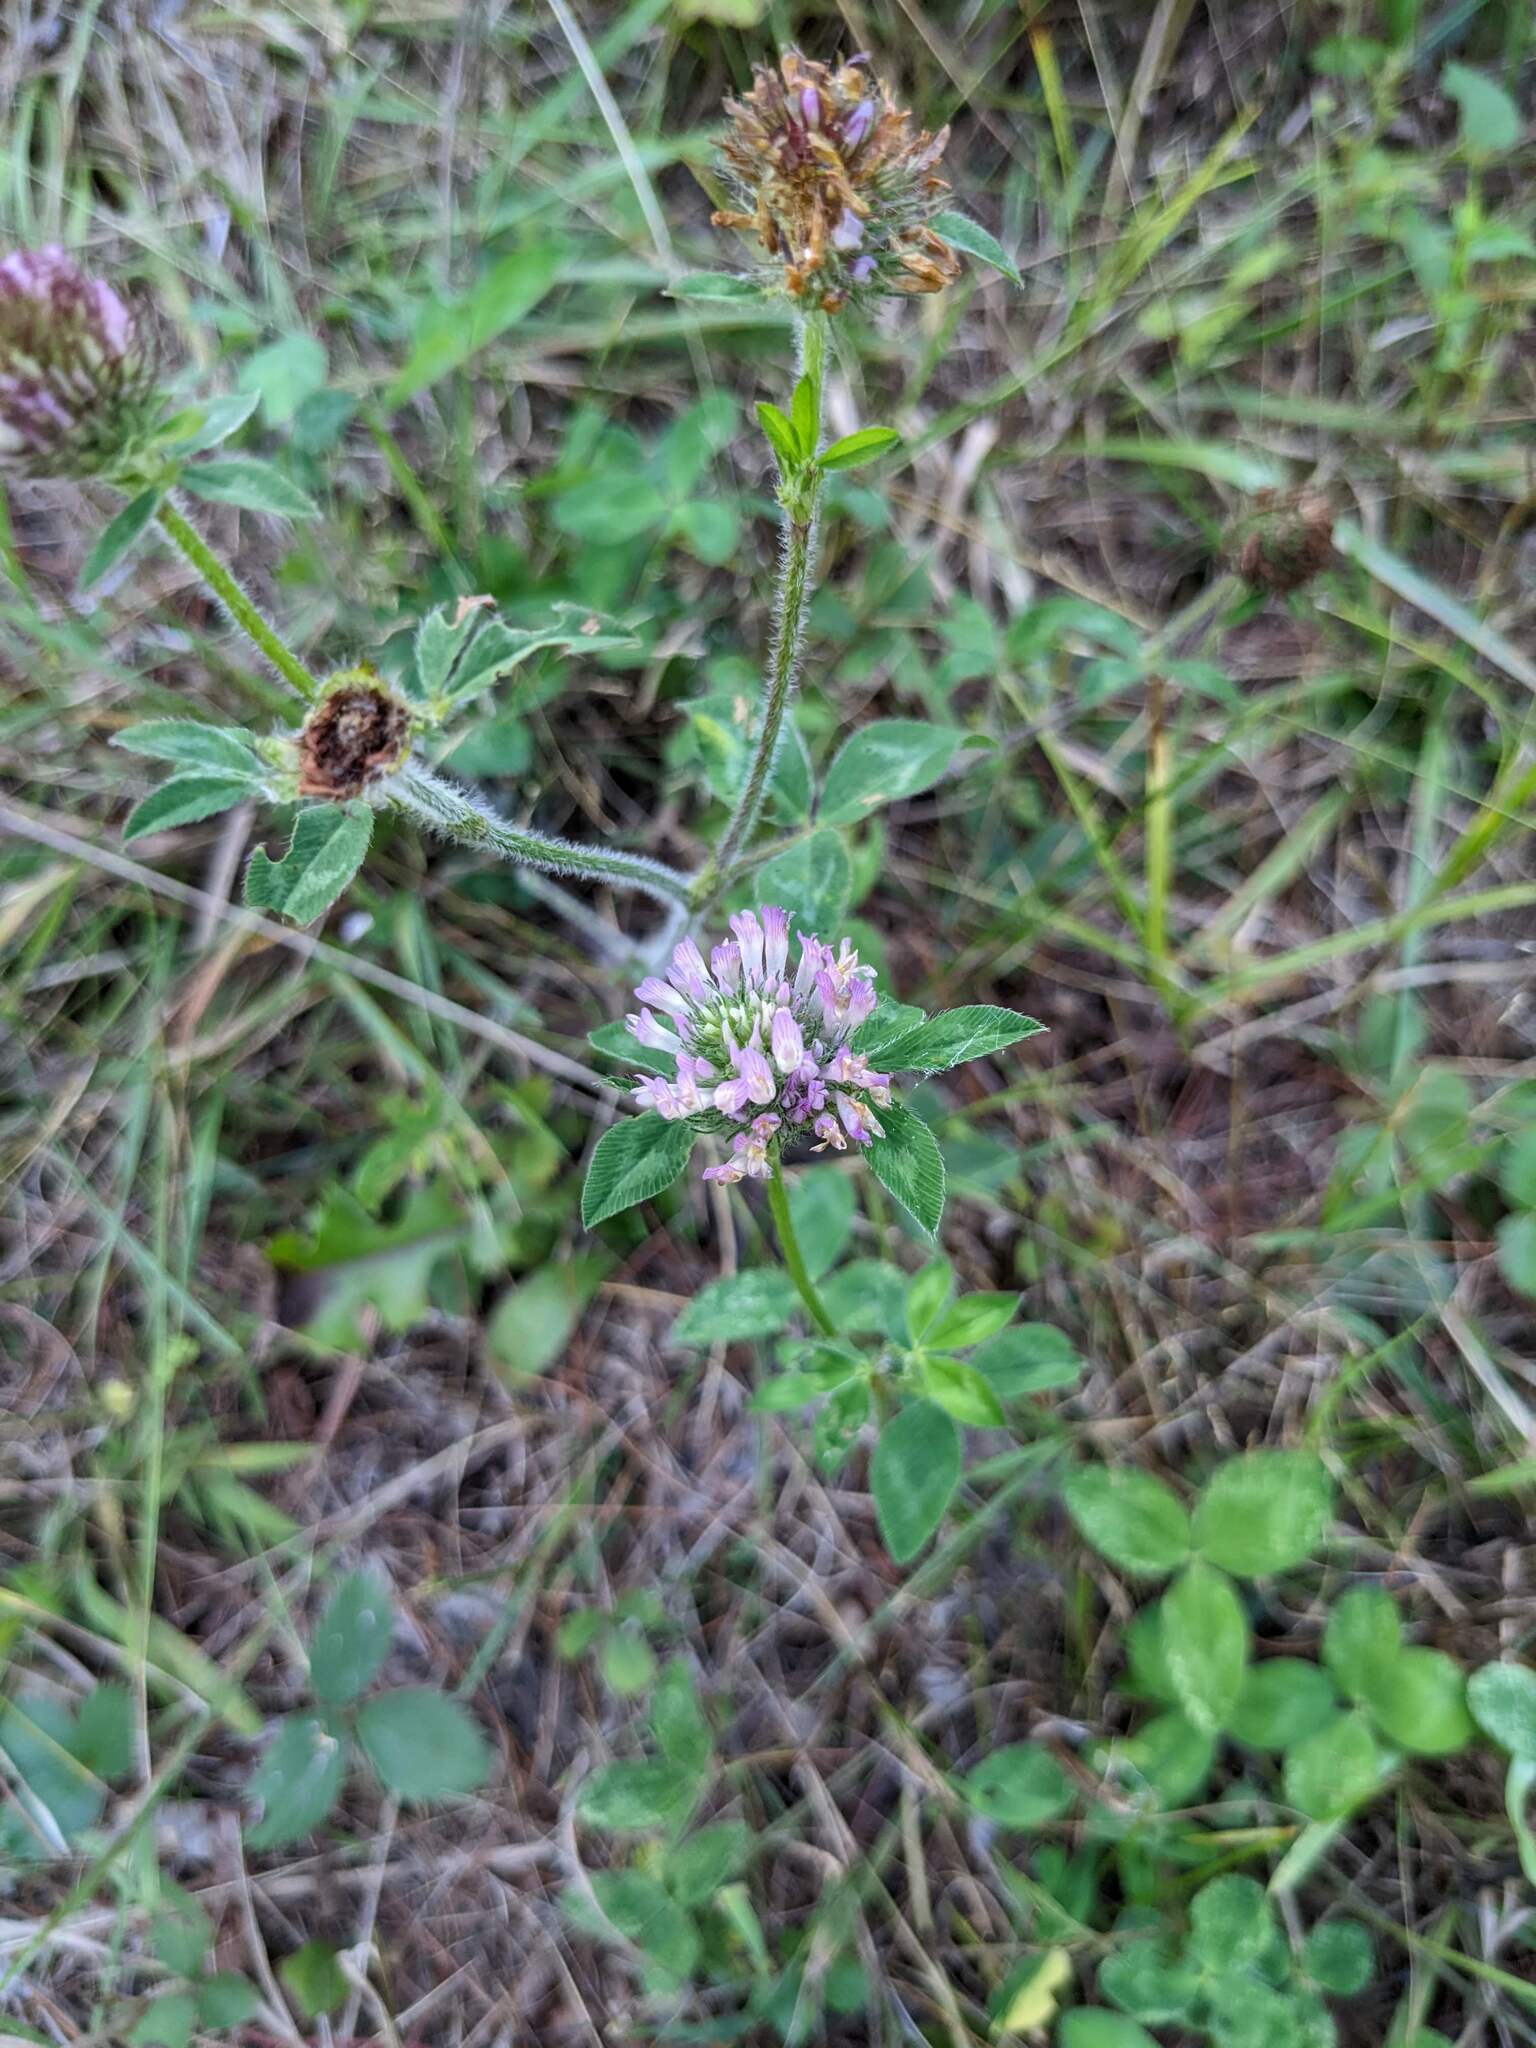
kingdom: Plantae
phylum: Tracheophyta
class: Magnoliopsida
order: Fabales
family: Fabaceae
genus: Trifolium
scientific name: Trifolium pratense
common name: Red clover
